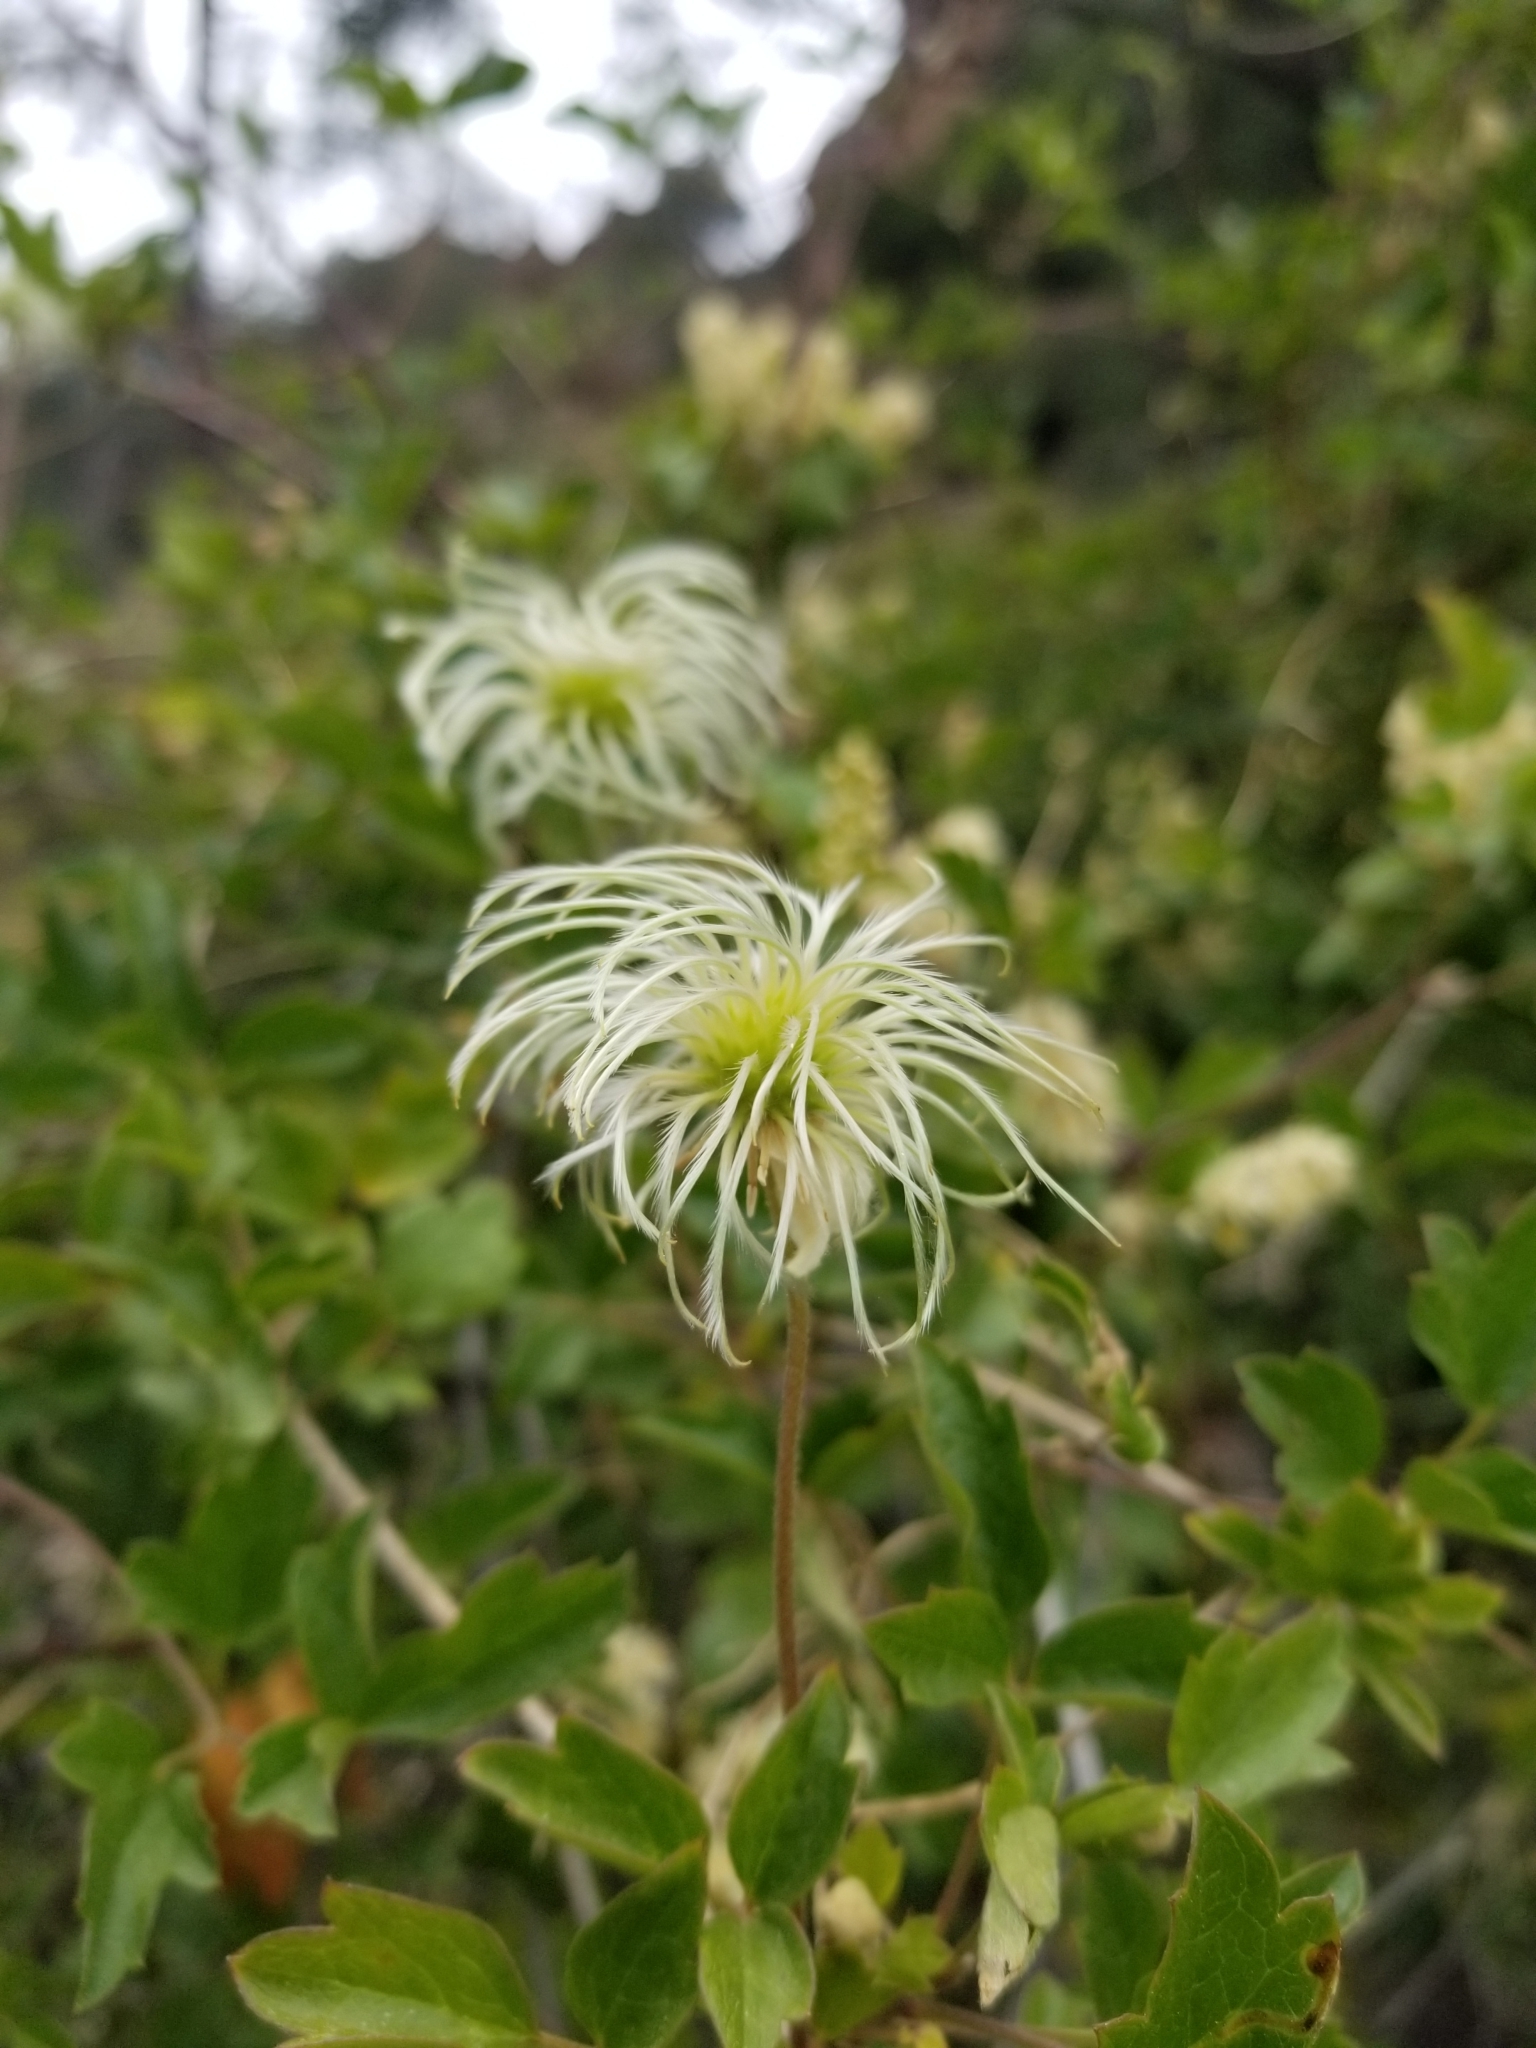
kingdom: Plantae
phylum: Tracheophyta
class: Magnoliopsida
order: Ranunculales
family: Ranunculaceae
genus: Clematis
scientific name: Clematis lasiantha
